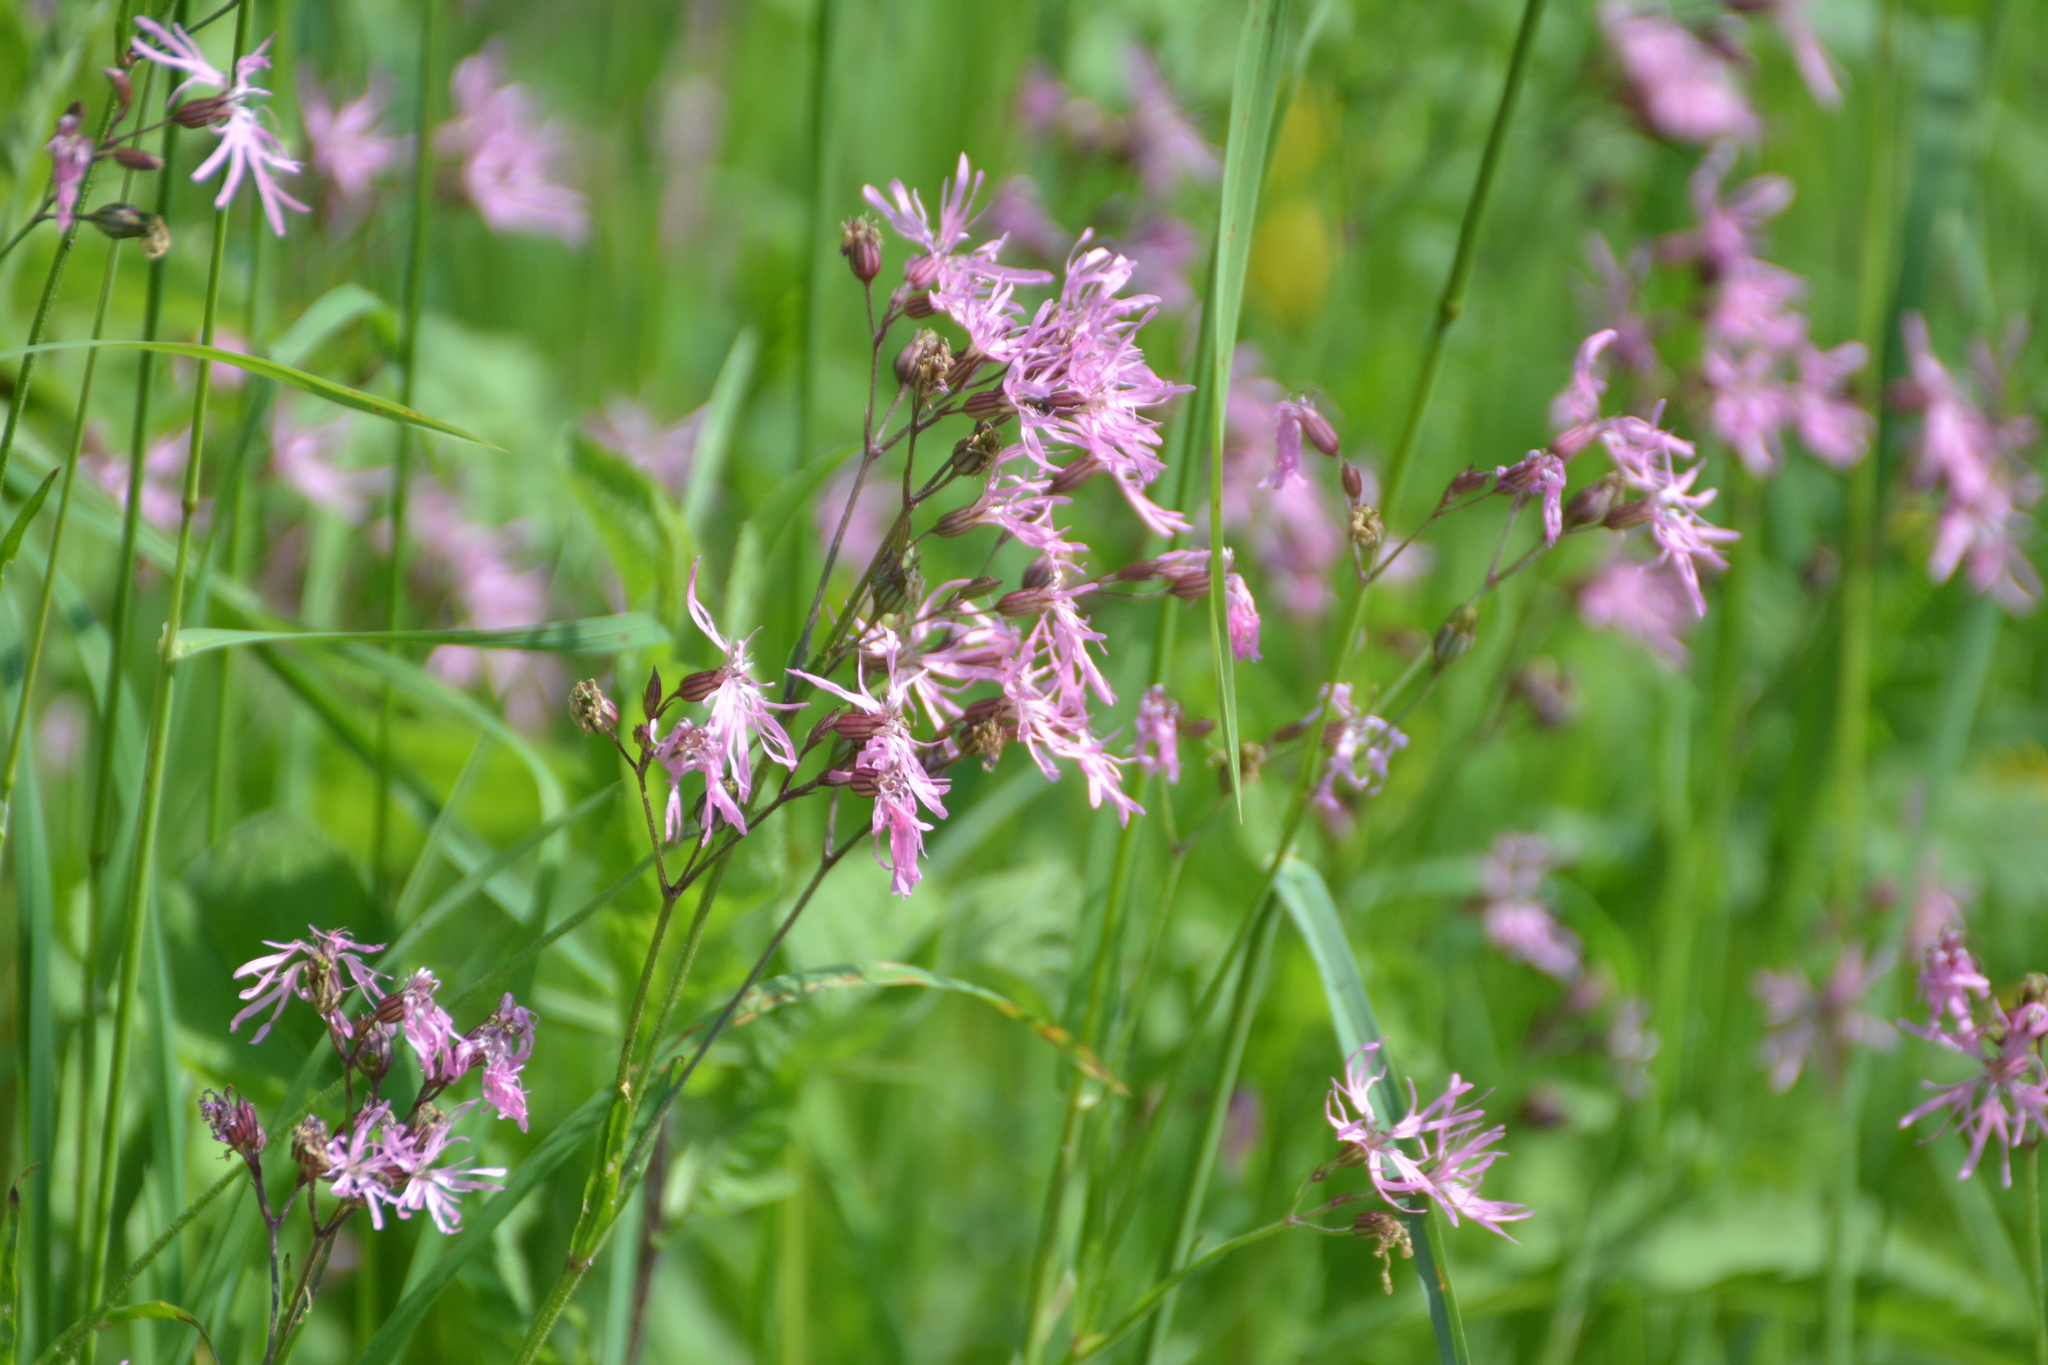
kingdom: Plantae
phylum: Tracheophyta
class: Magnoliopsida
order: Caryophyllales
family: Caryophyllaceae
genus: Silene
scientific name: Silene flos-cuculi
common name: Ragged-robin
